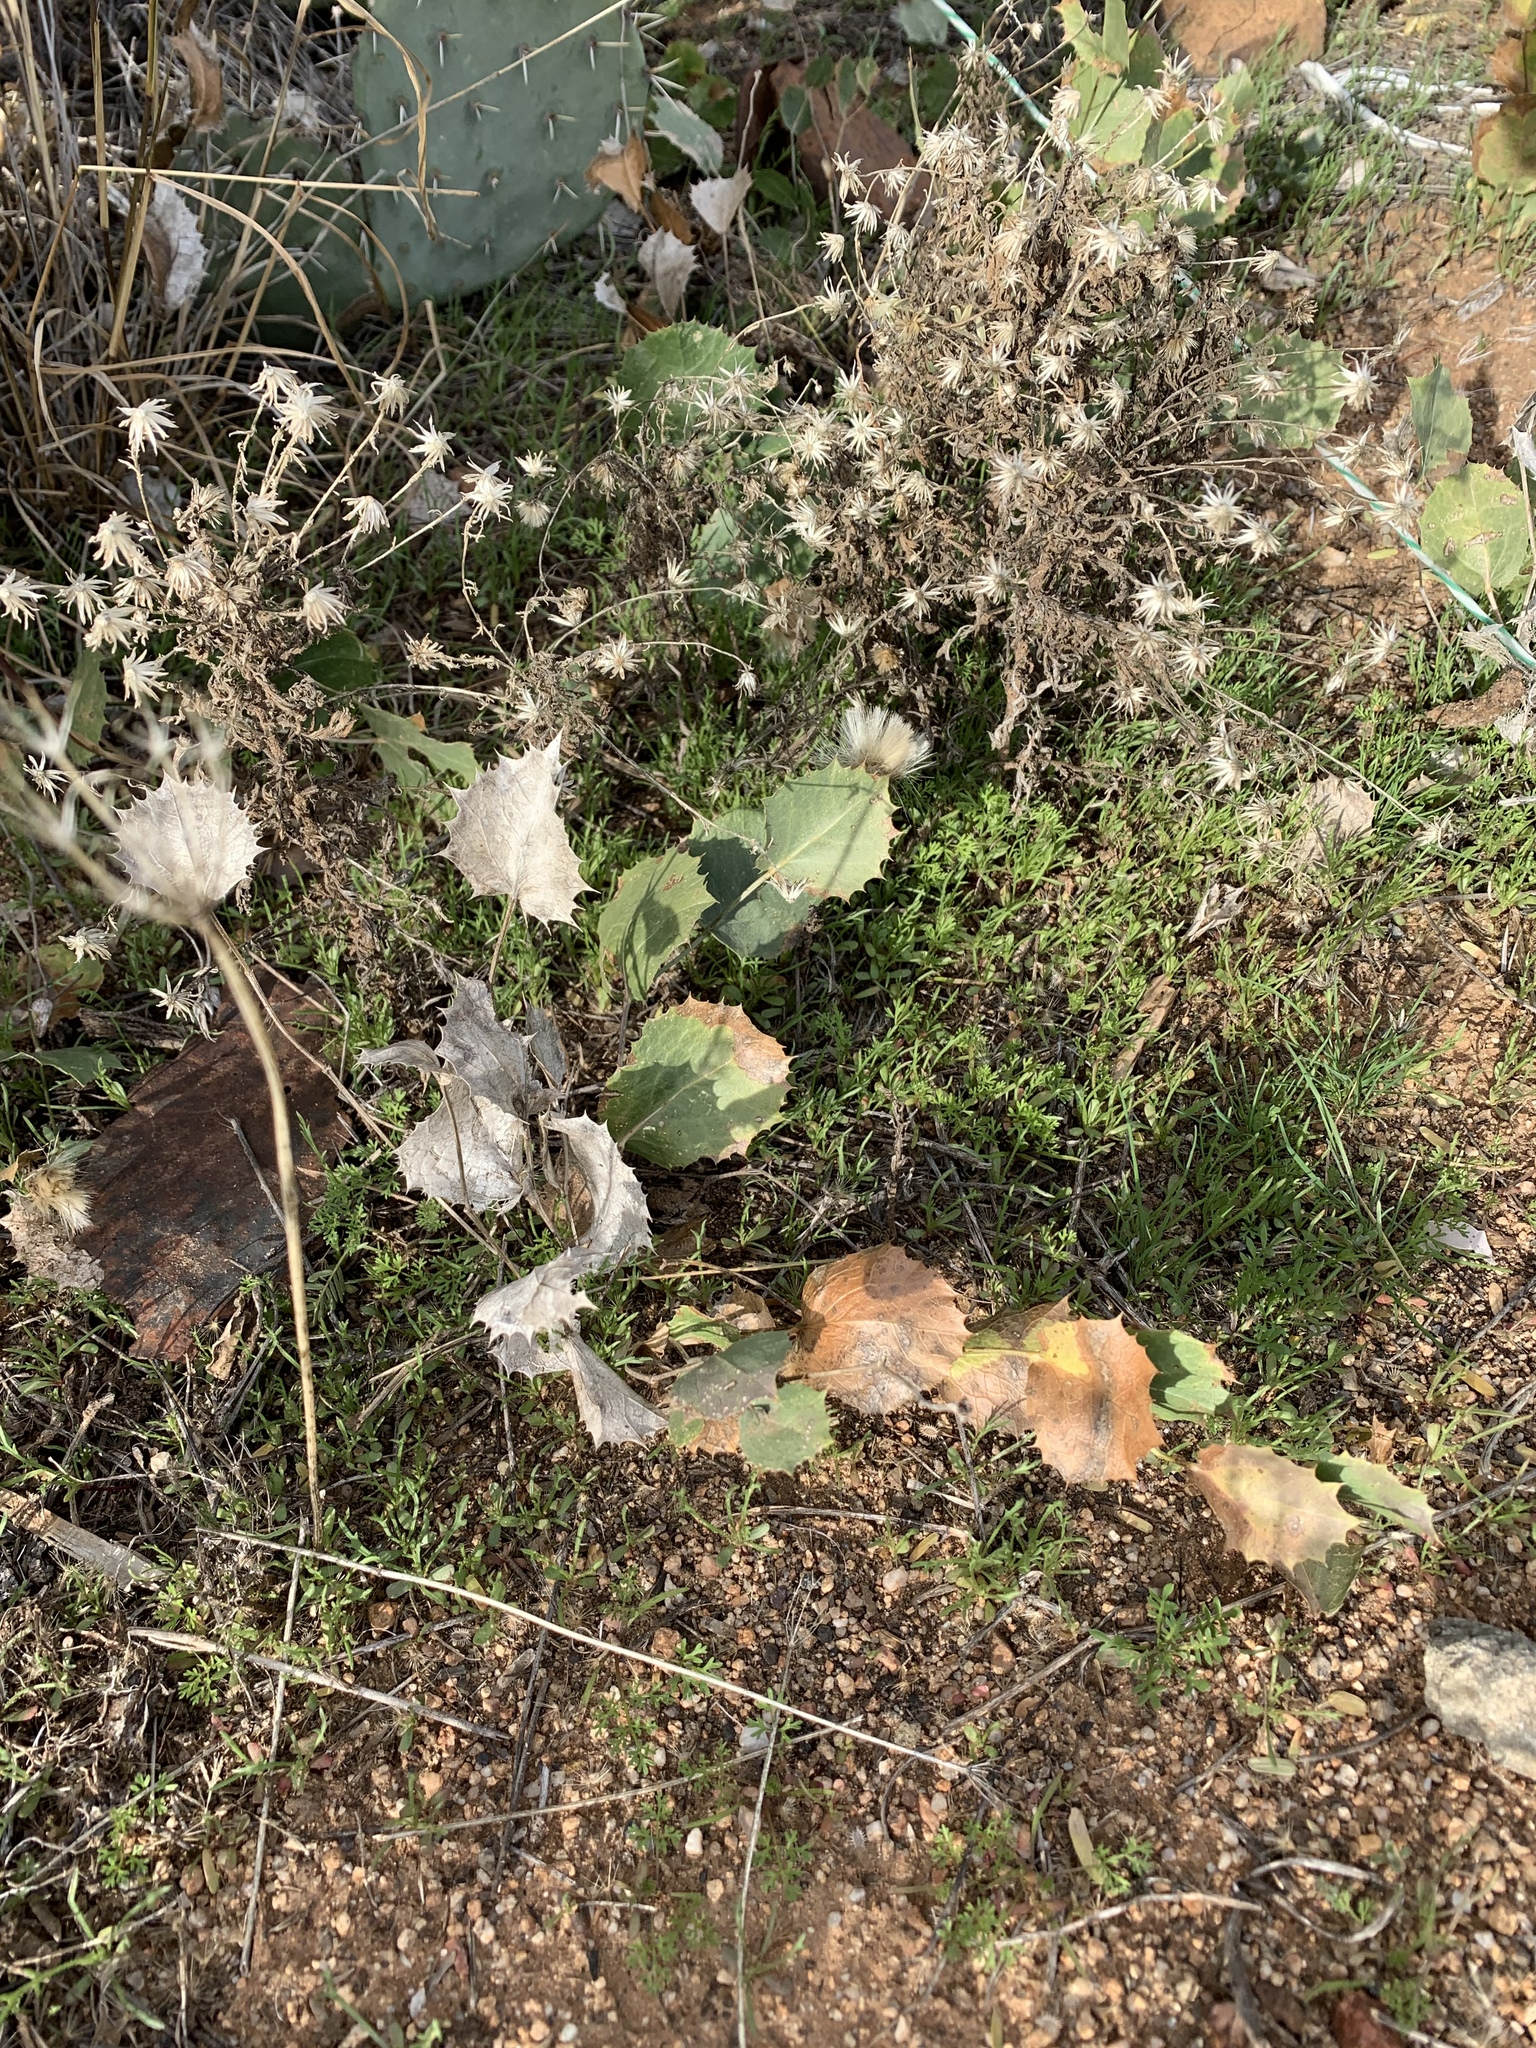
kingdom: Plantae
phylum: Tracheophyta
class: Magnoliopsida
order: Asterales
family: Asteraceae
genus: Acourtia
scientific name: Acourtia nana
